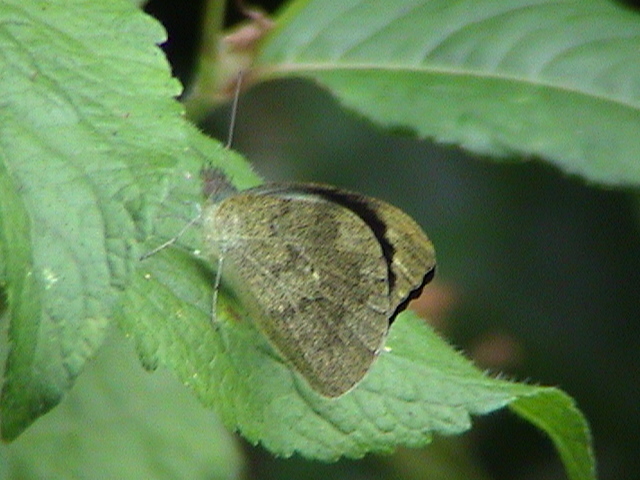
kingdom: Animalia
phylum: Arthropoda
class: Insecta
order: Lepidoptera
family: Pieridae
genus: Appias
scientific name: Appias indra
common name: Plain puffin
